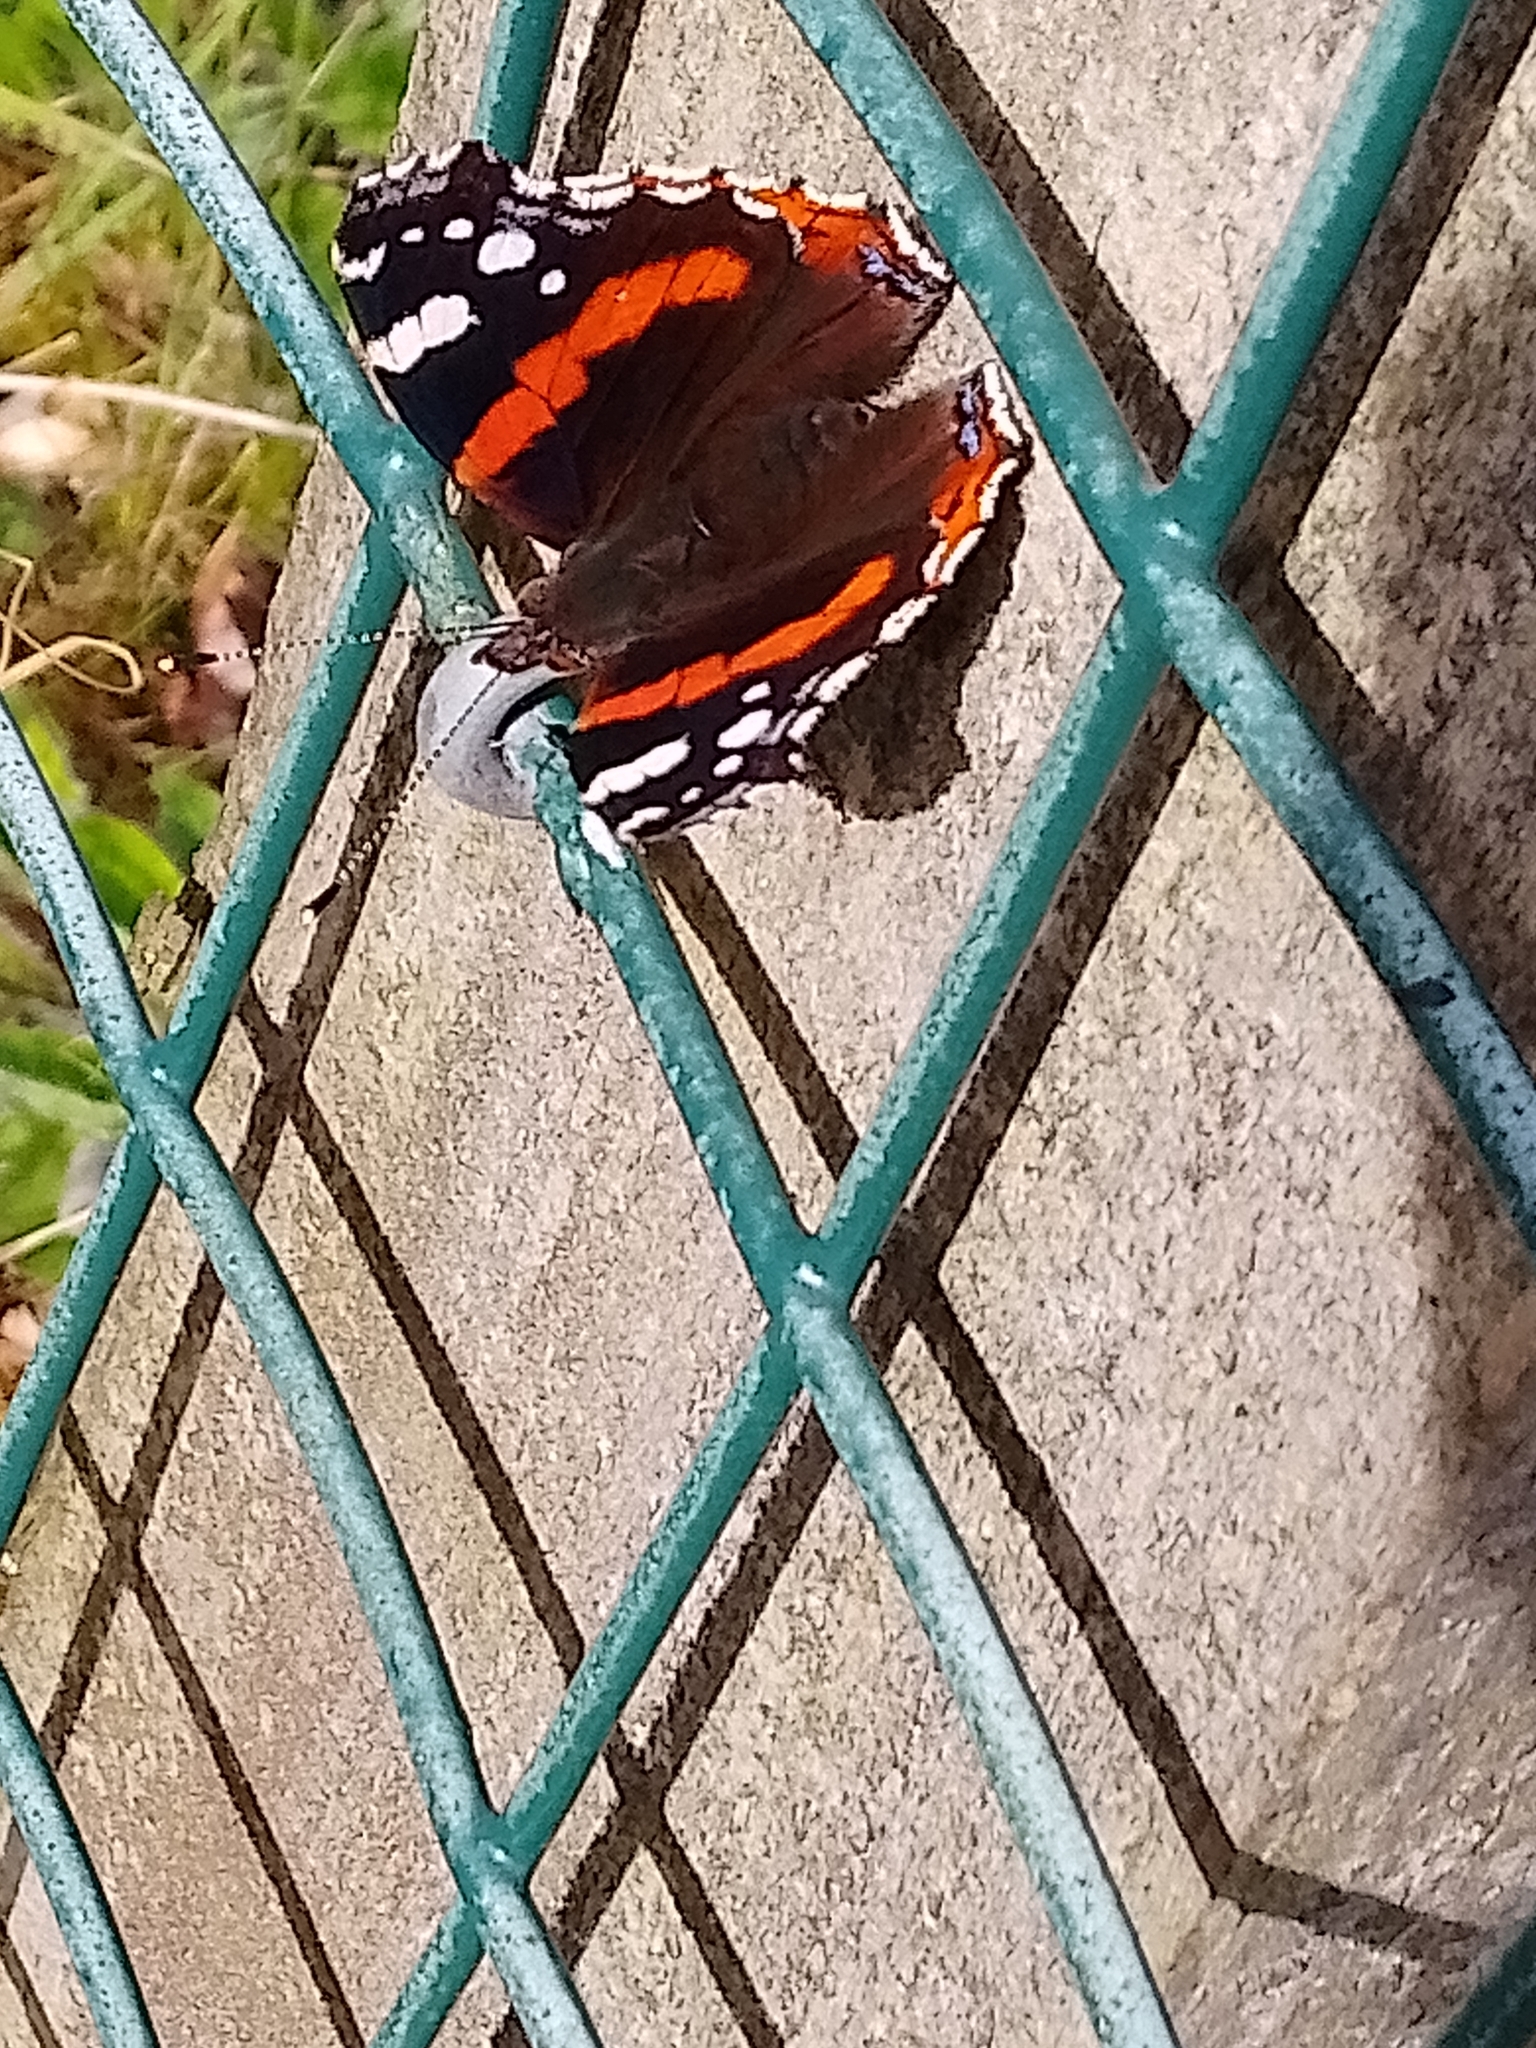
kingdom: Animalia
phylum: Arthropoda
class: Insecta
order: Lepidoptera
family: Nymphalidae
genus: Vanessa
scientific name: Vanessa atalanta
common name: Red admiral
